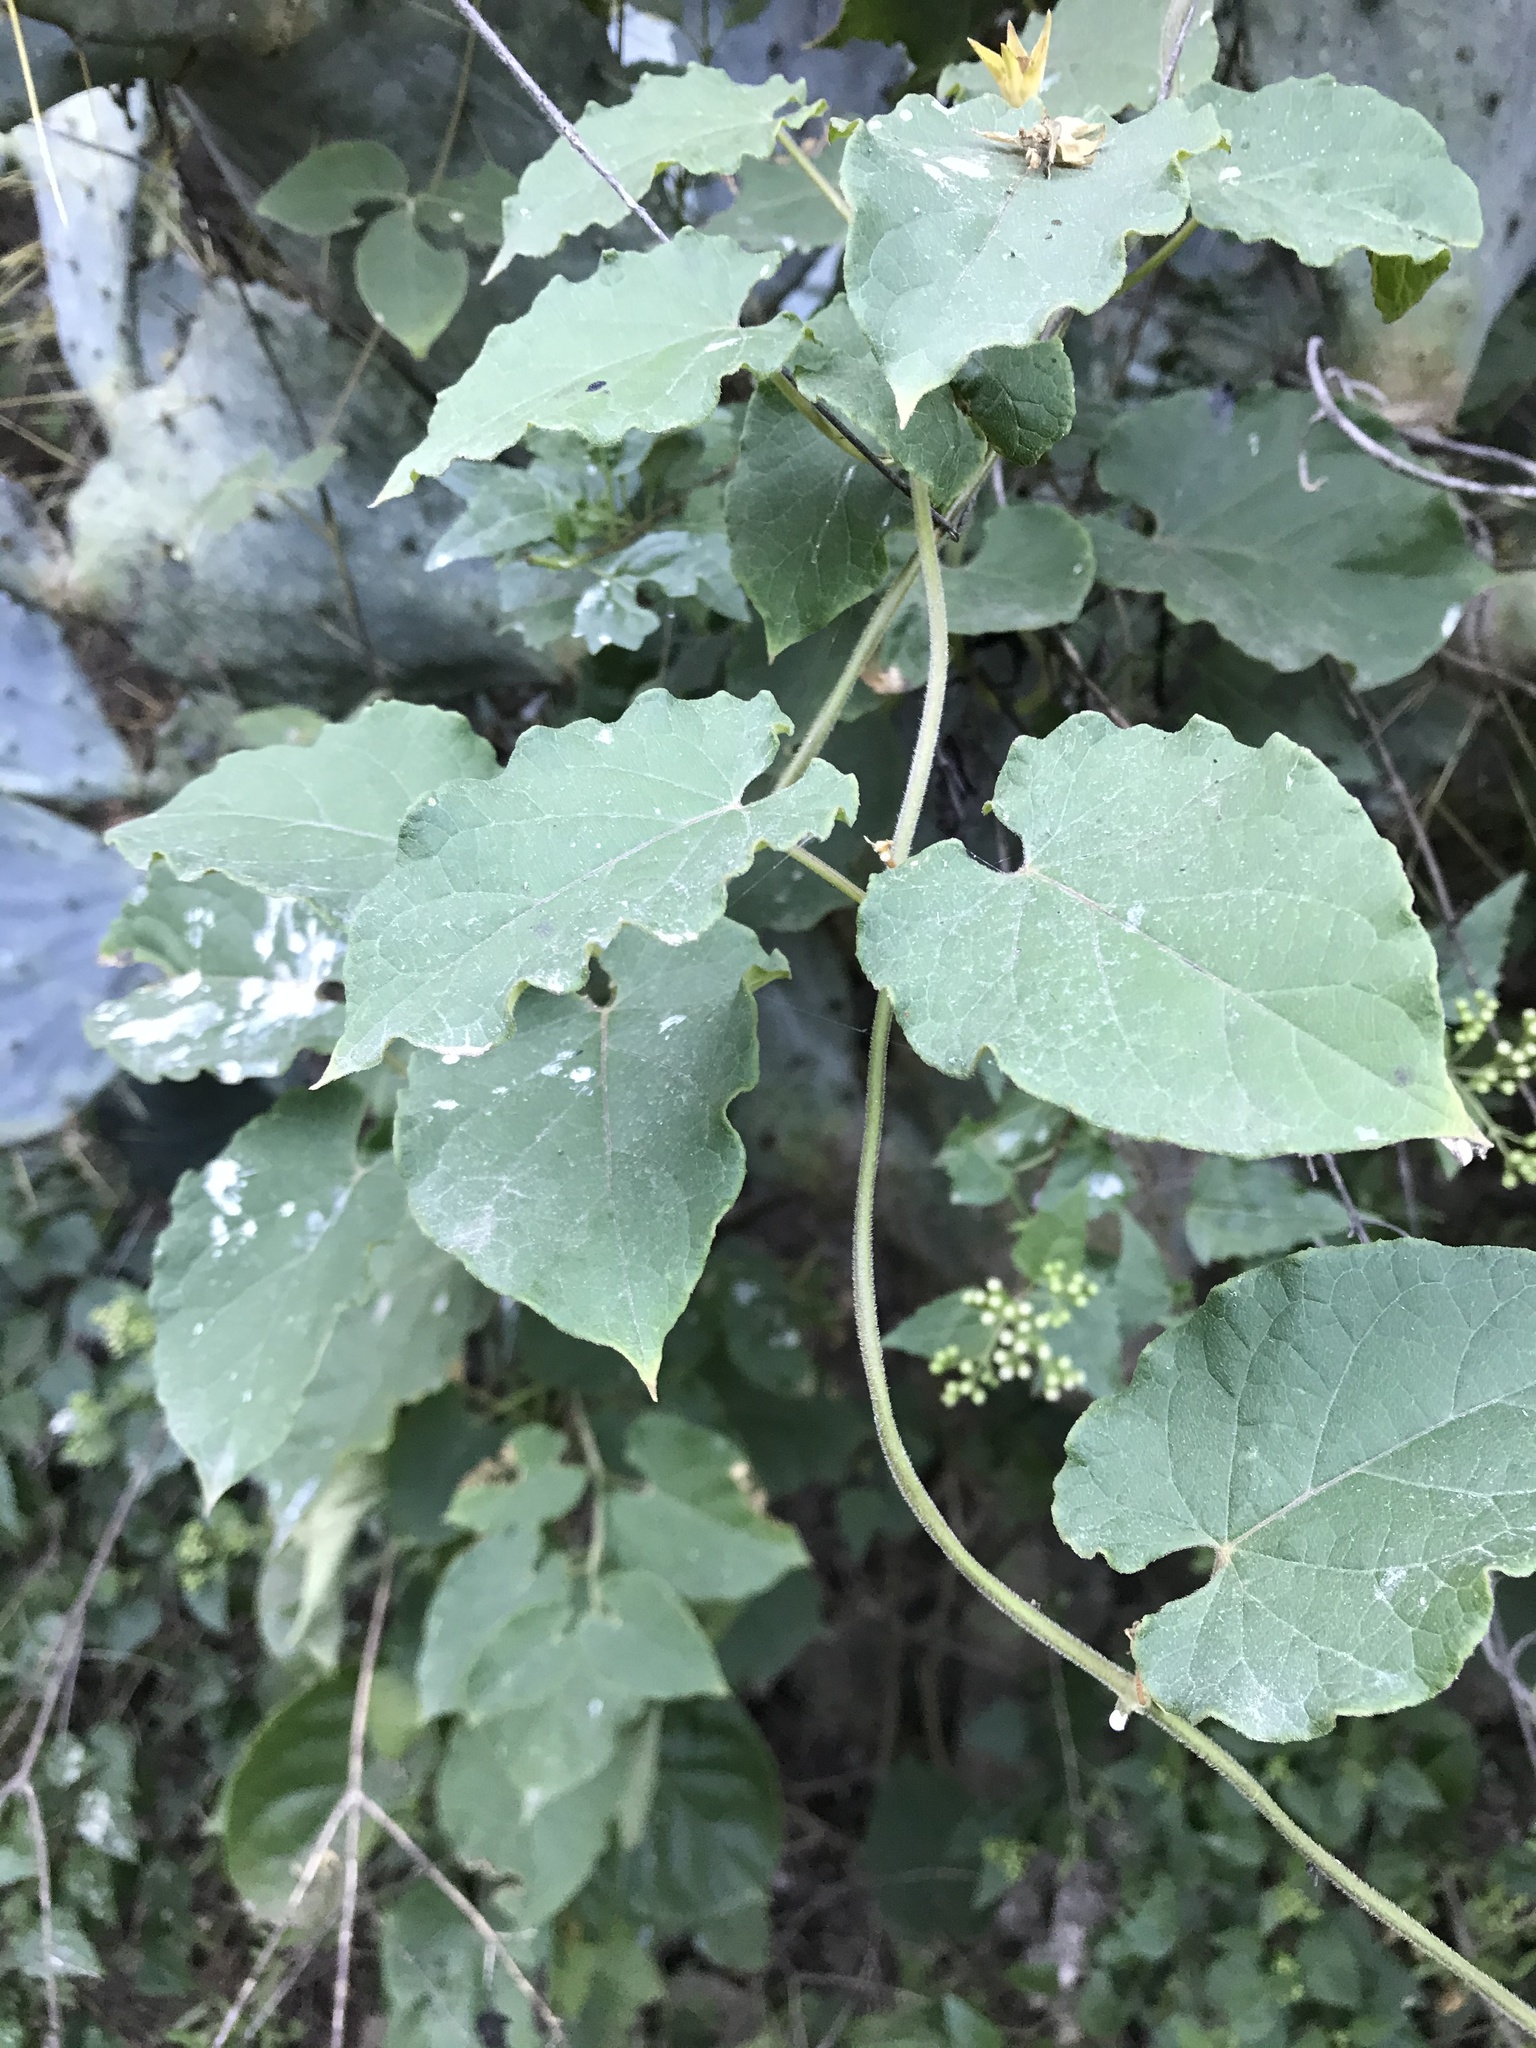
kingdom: Plantae
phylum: Tracheophyta
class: Magnoliopsida
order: Gentianales
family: Apocynaceae
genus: Gonolobus
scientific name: Gonolobus erianthus
